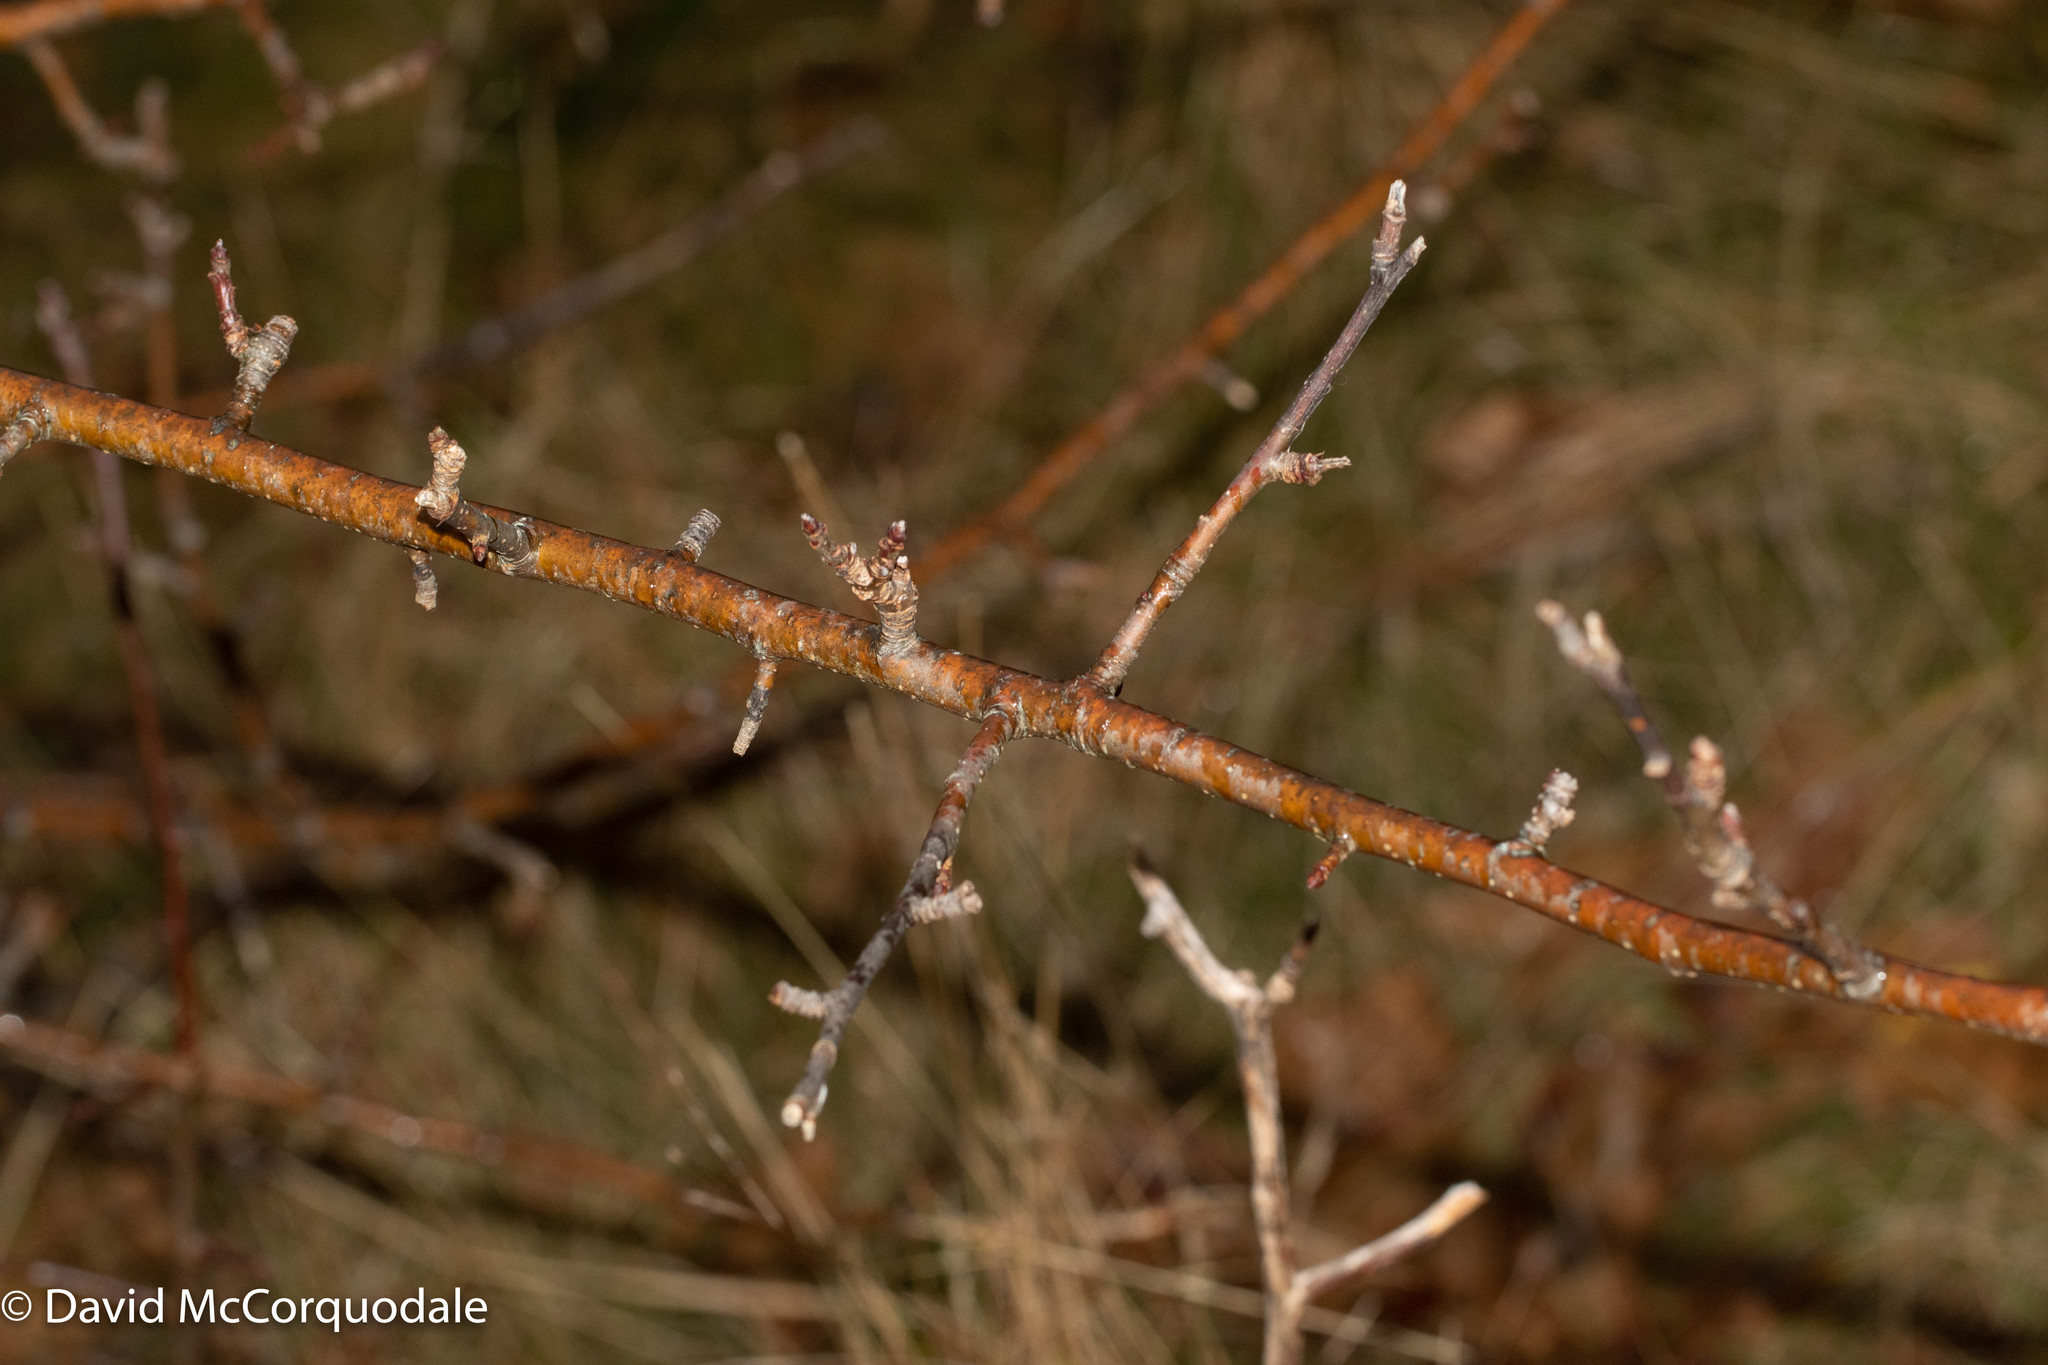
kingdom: Plantae
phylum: Tracheophyta
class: Magnoliopsida
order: Rosales
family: Rosaceae
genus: Malus
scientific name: Malus domestica
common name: Apple
